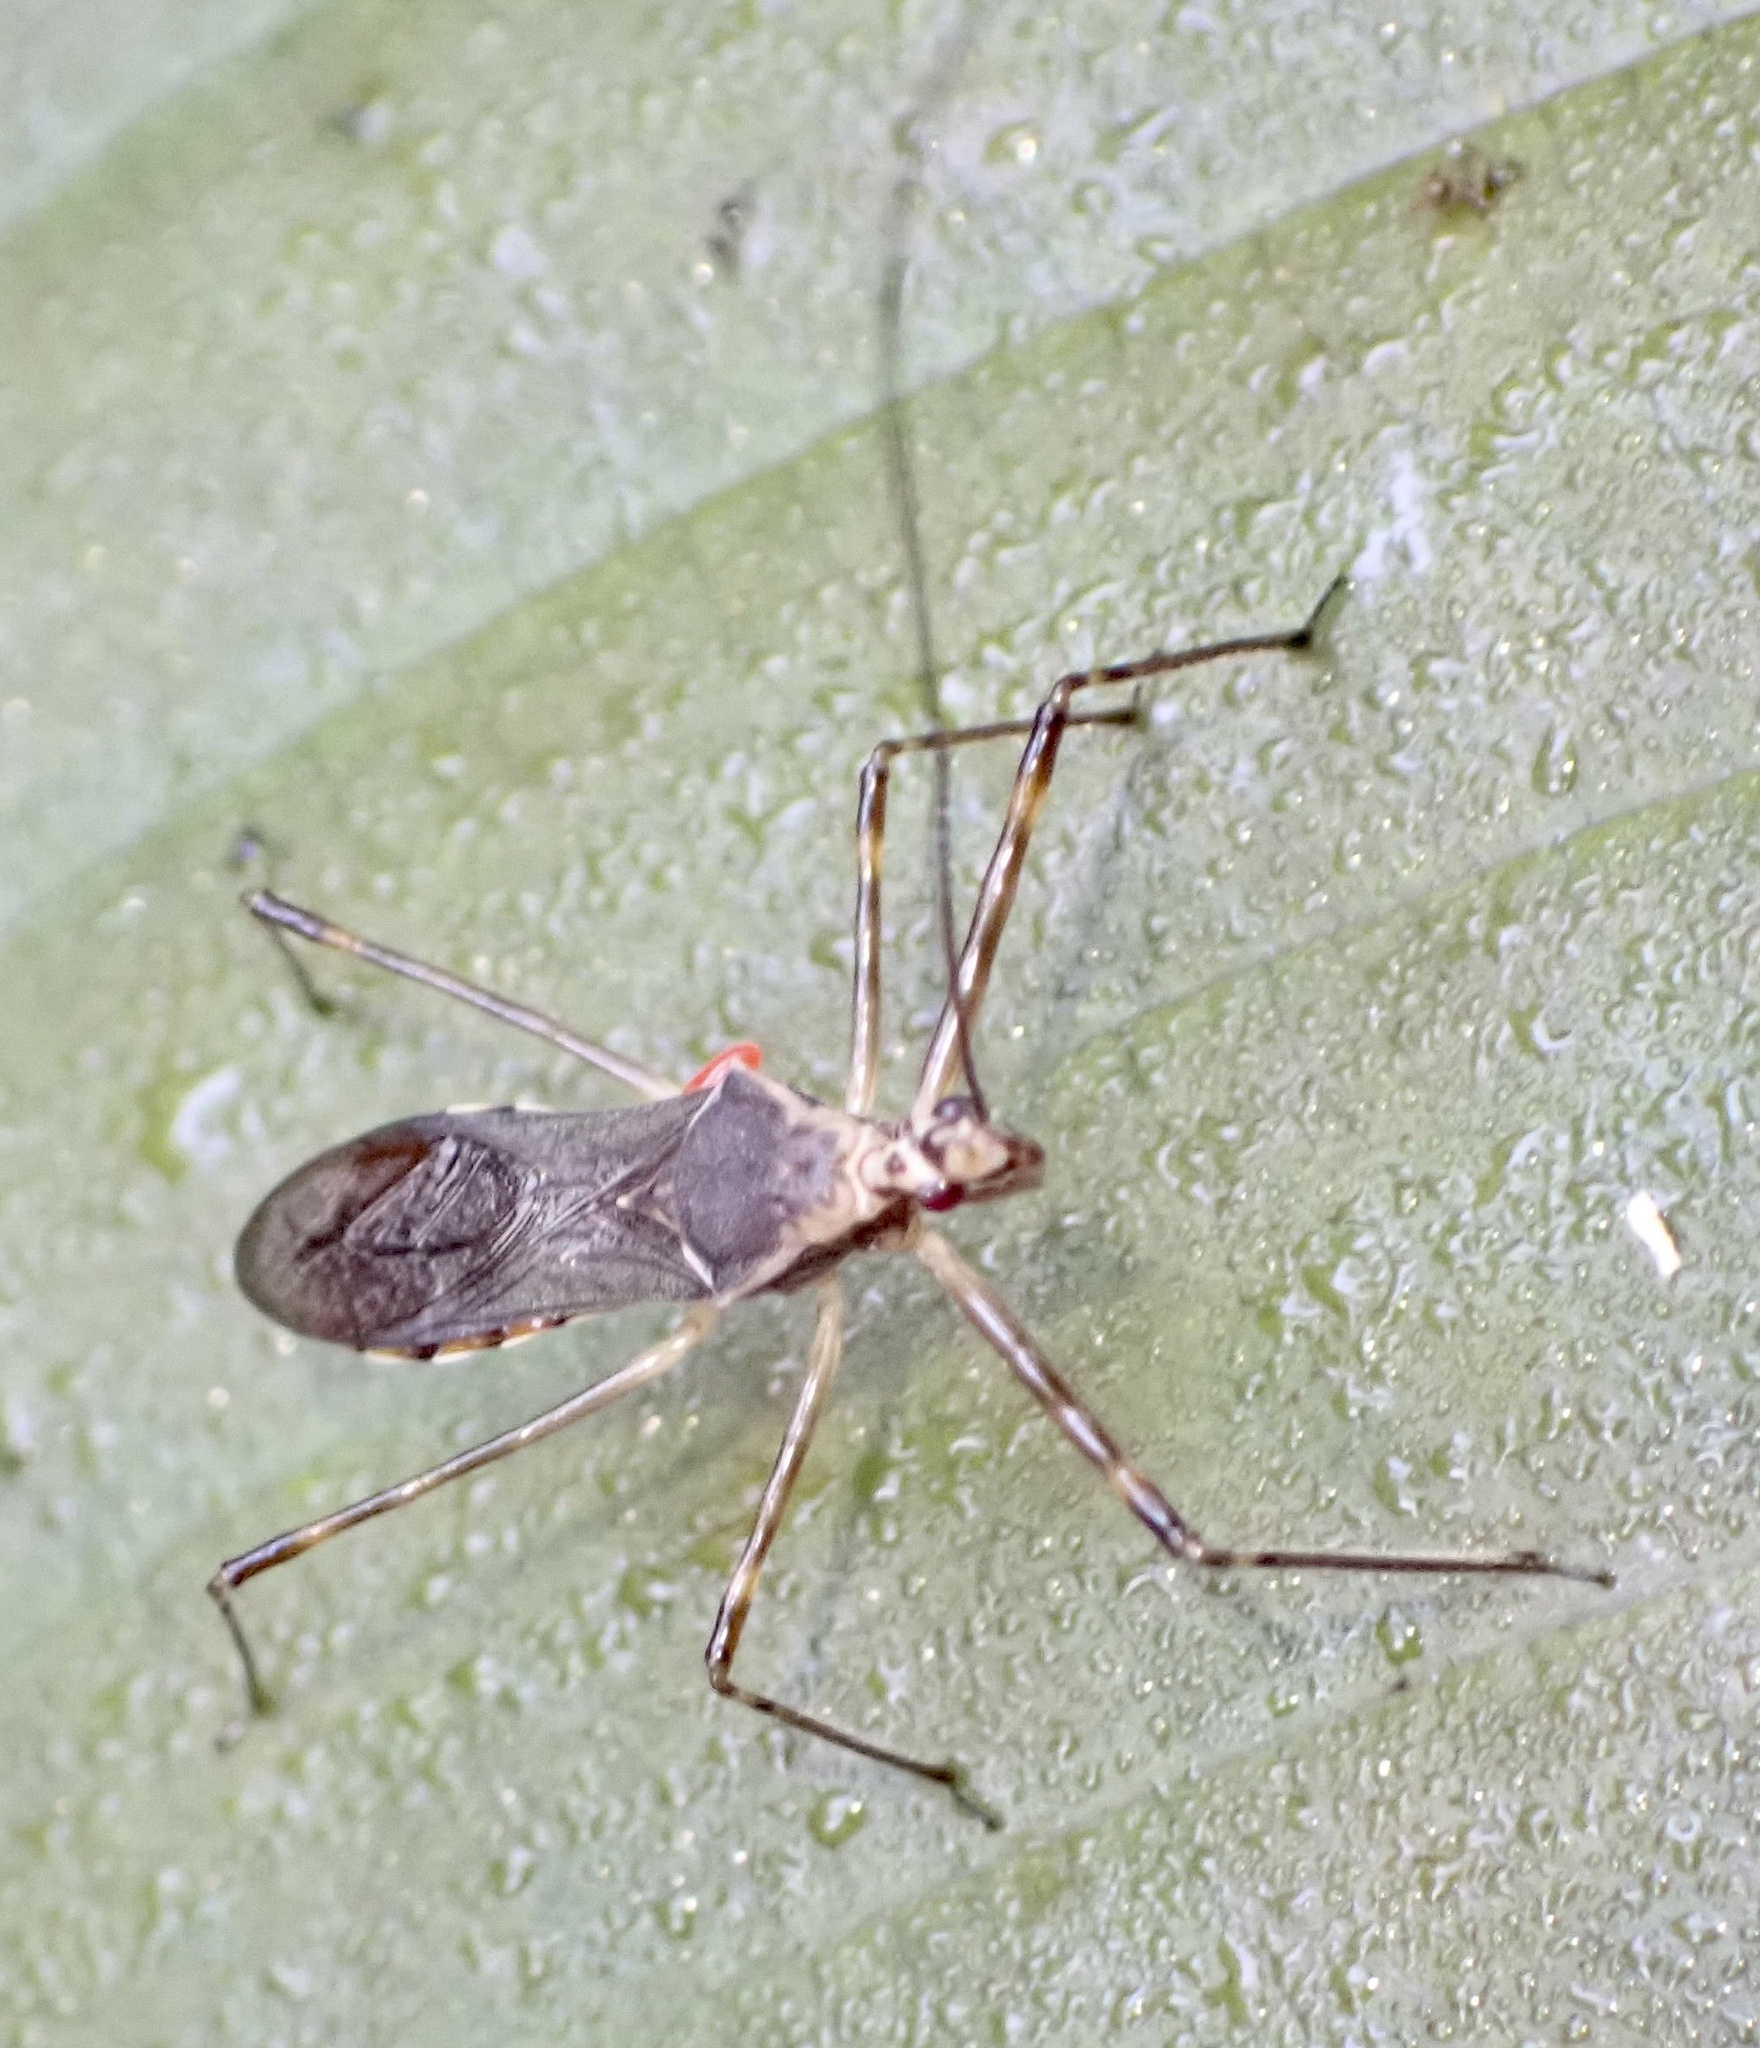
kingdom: Animalia
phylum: Arthropoda
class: Insecta
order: Hemiptera
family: Reduviidae
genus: Vestula
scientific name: Vestula lineaticeps
